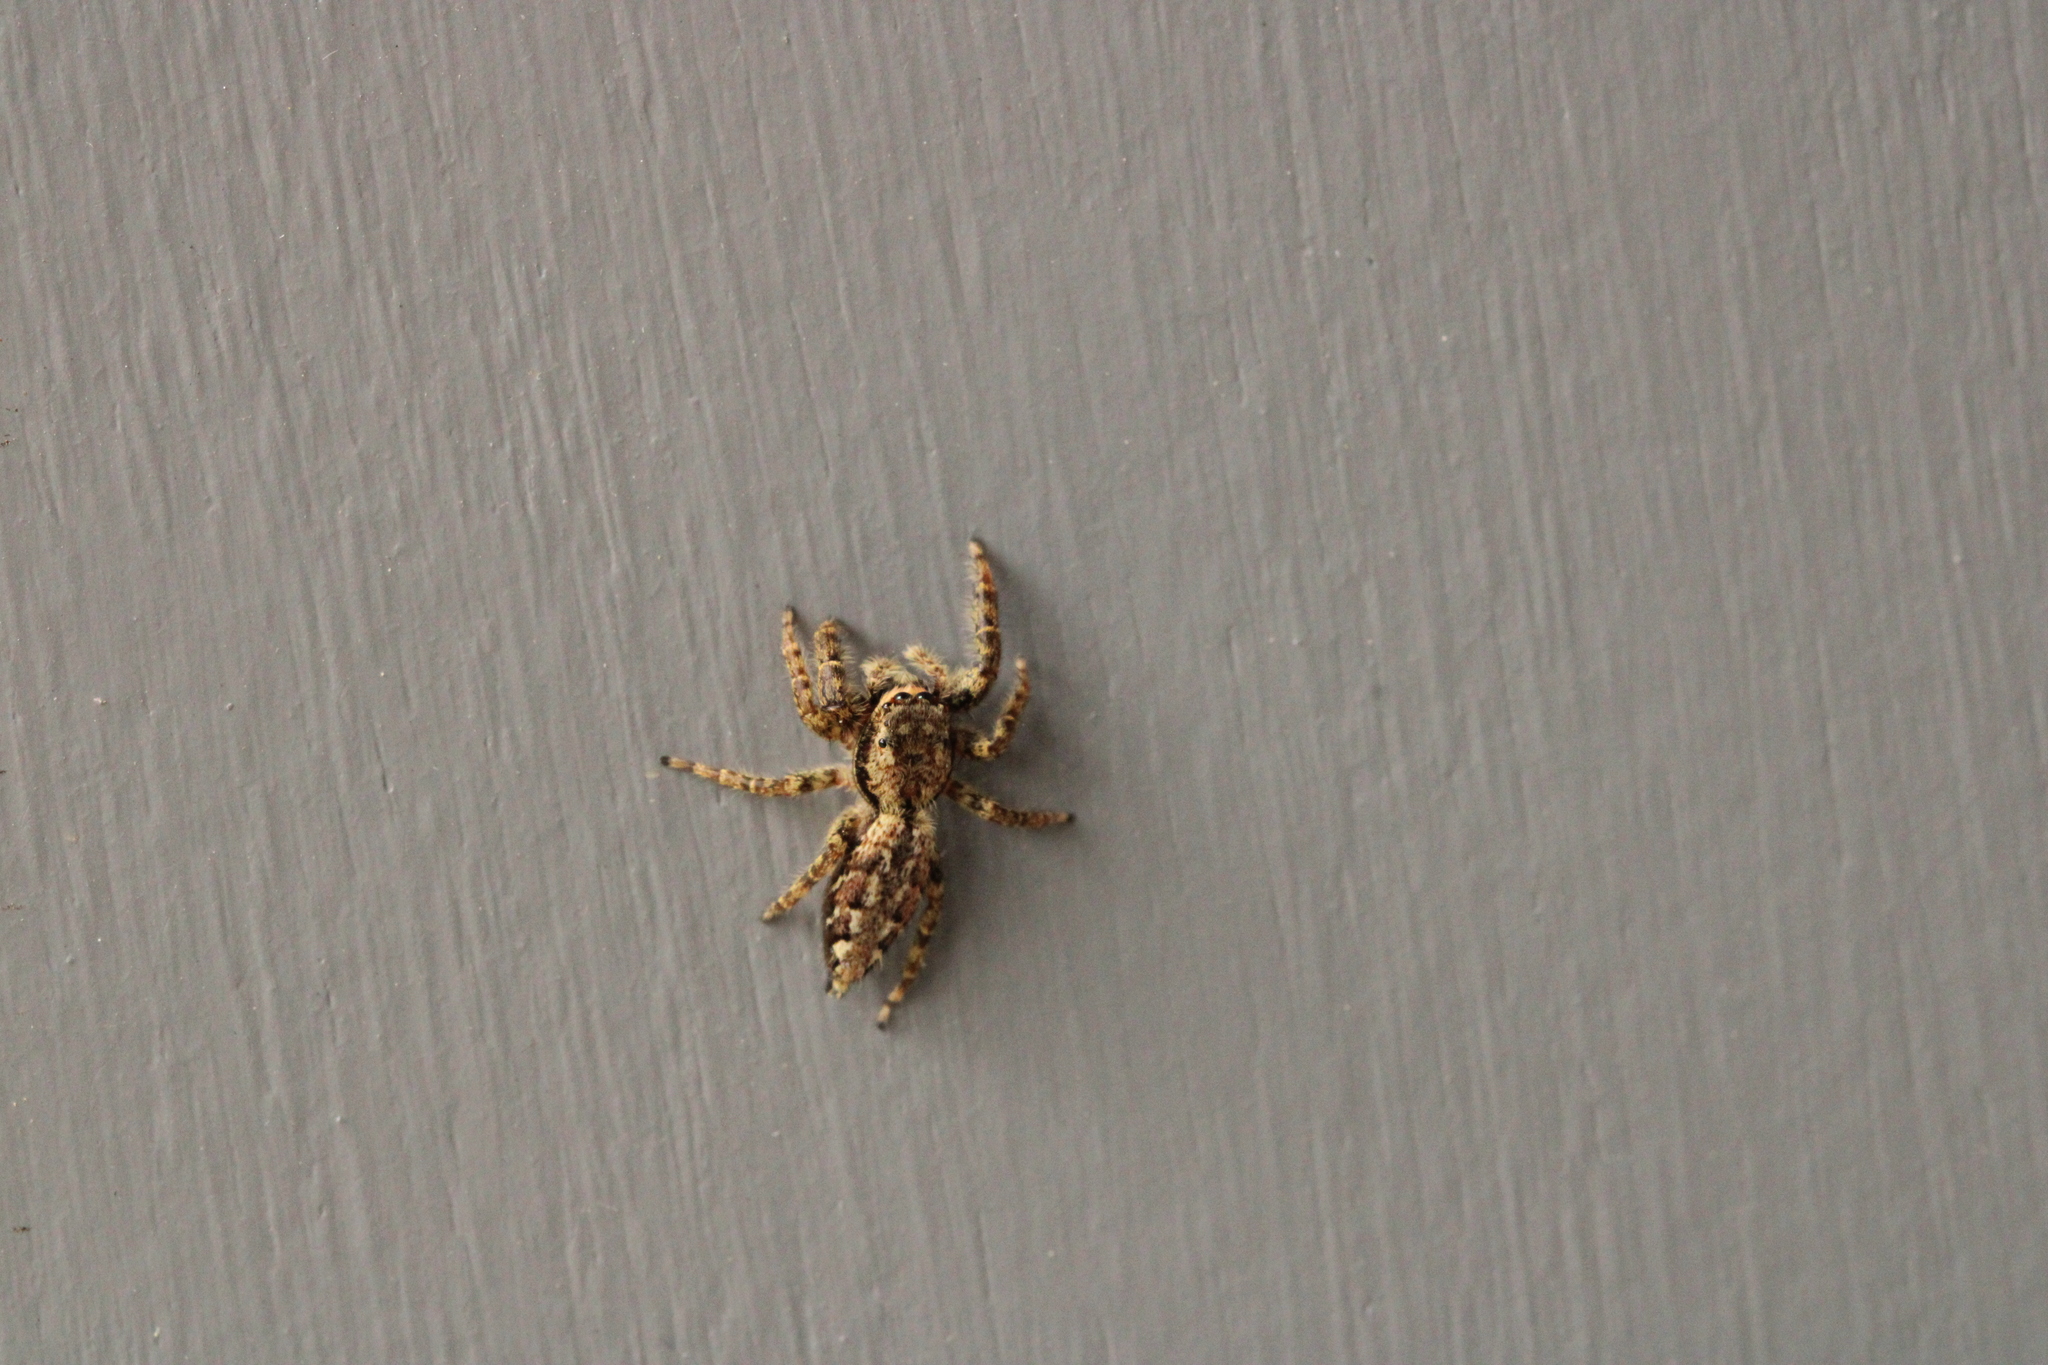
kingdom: Animalia
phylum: Arthropoda
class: Arachnida
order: Araneae
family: Salticidae
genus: Marpissa
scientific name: Marpissa muscosa
